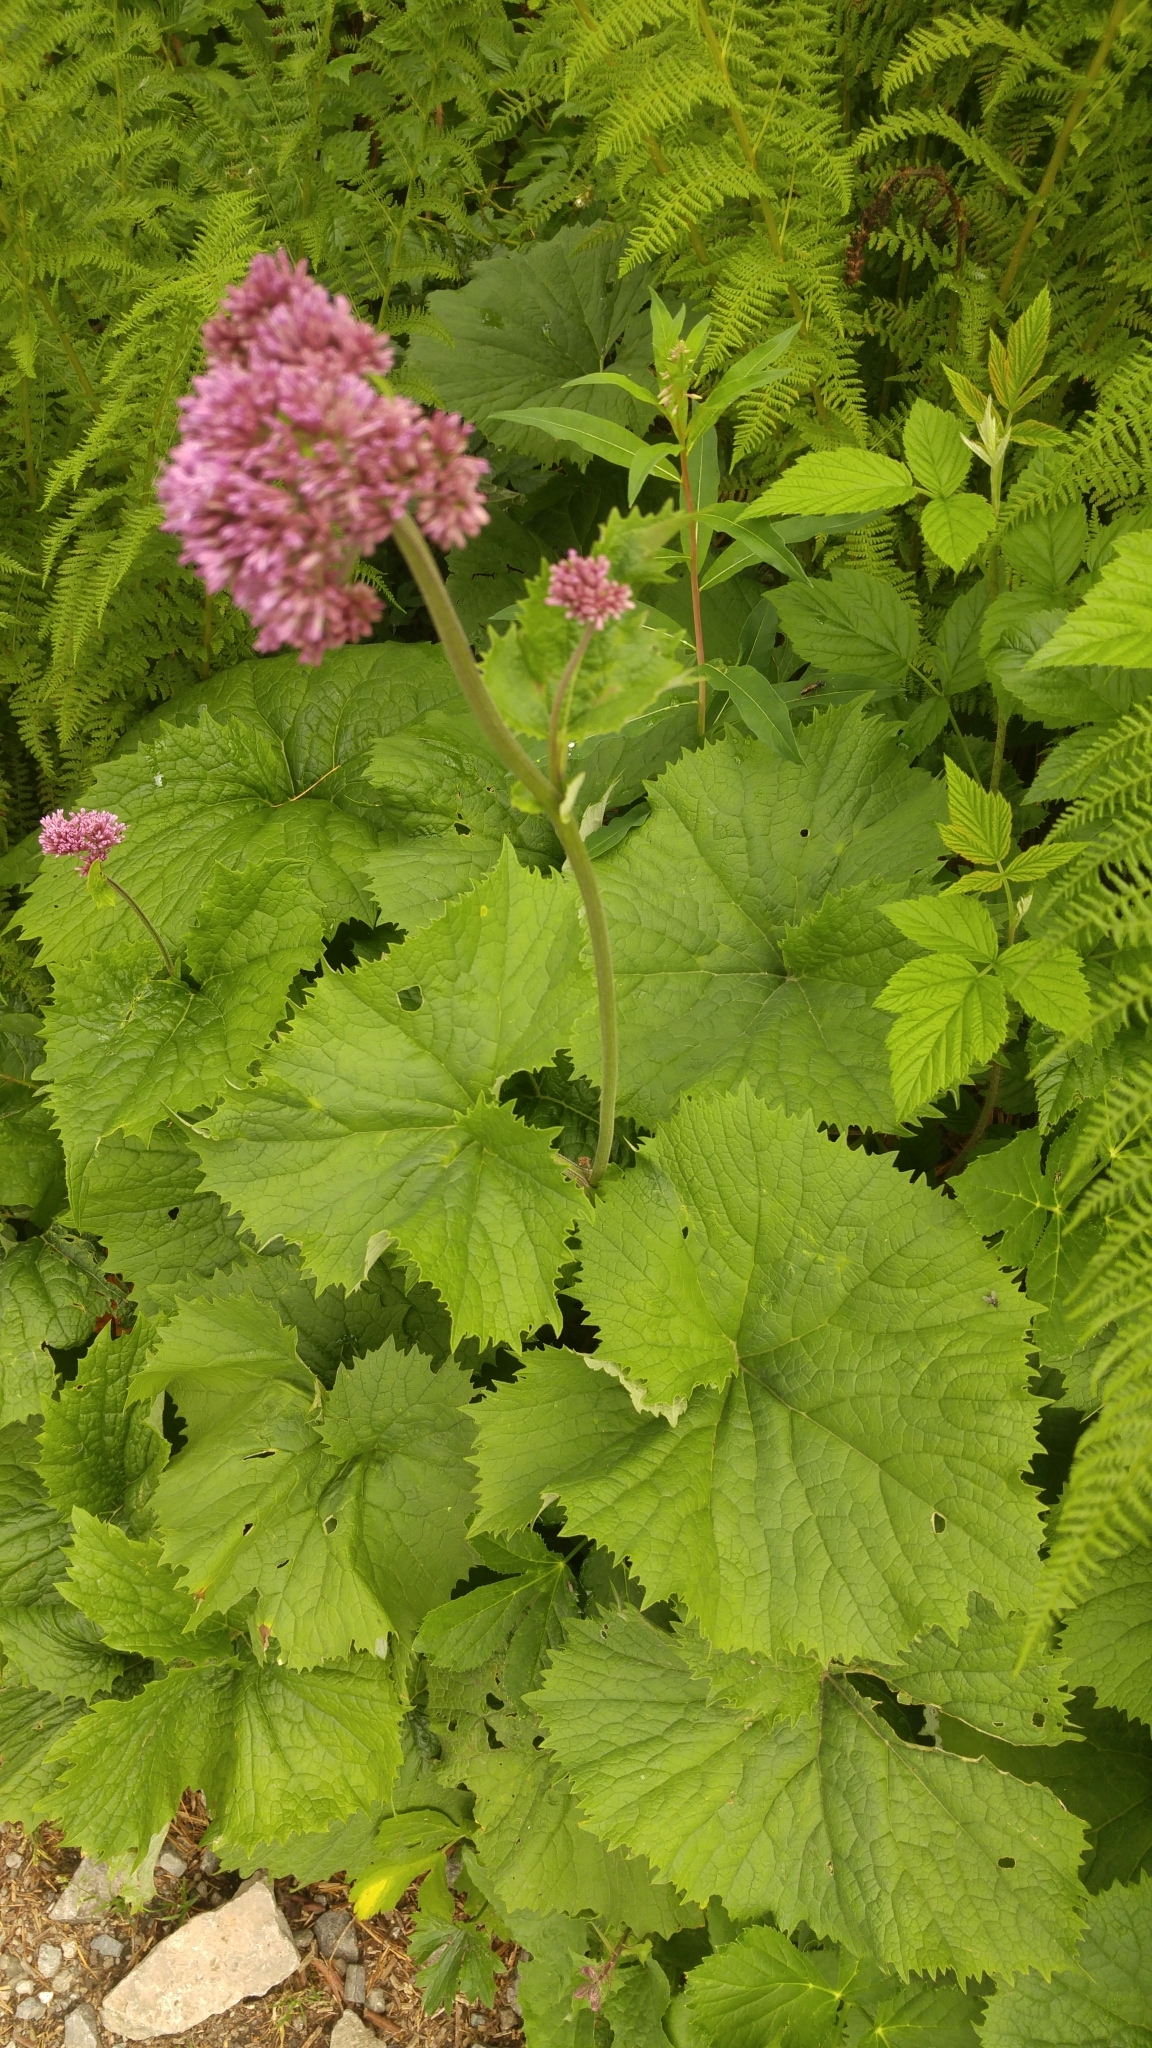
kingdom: Plantae
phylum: Tracheophyta
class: Magnoliopsida
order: Asterales
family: Asteraceae
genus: Adenostyles
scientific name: Adenostyles alliariae
